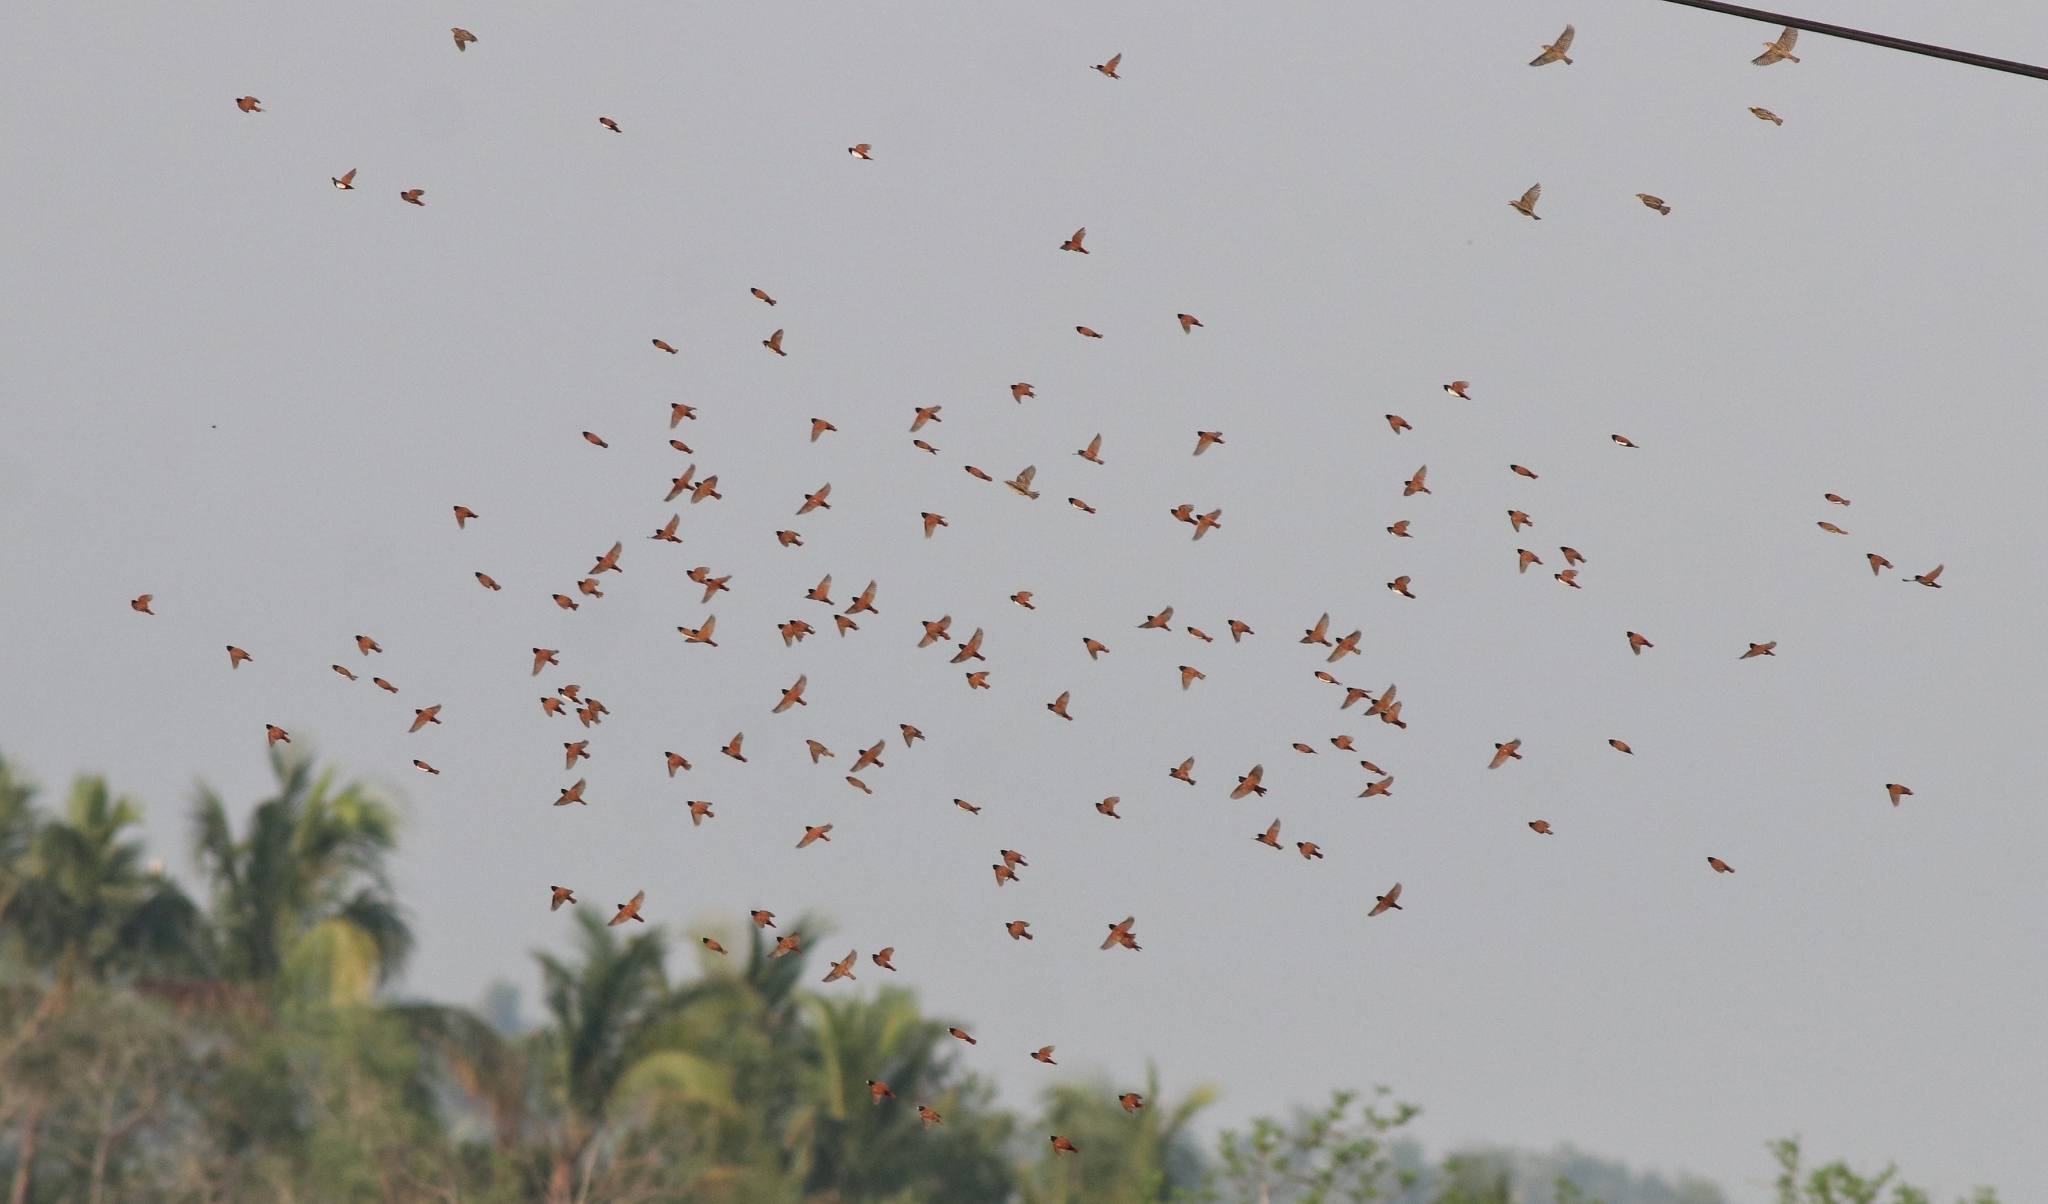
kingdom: Animalia
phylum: Chordata
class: Aves
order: Passeriformes
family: Estrildidae
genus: Lonchura
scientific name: Lonchura malacca
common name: Tricolored munia
